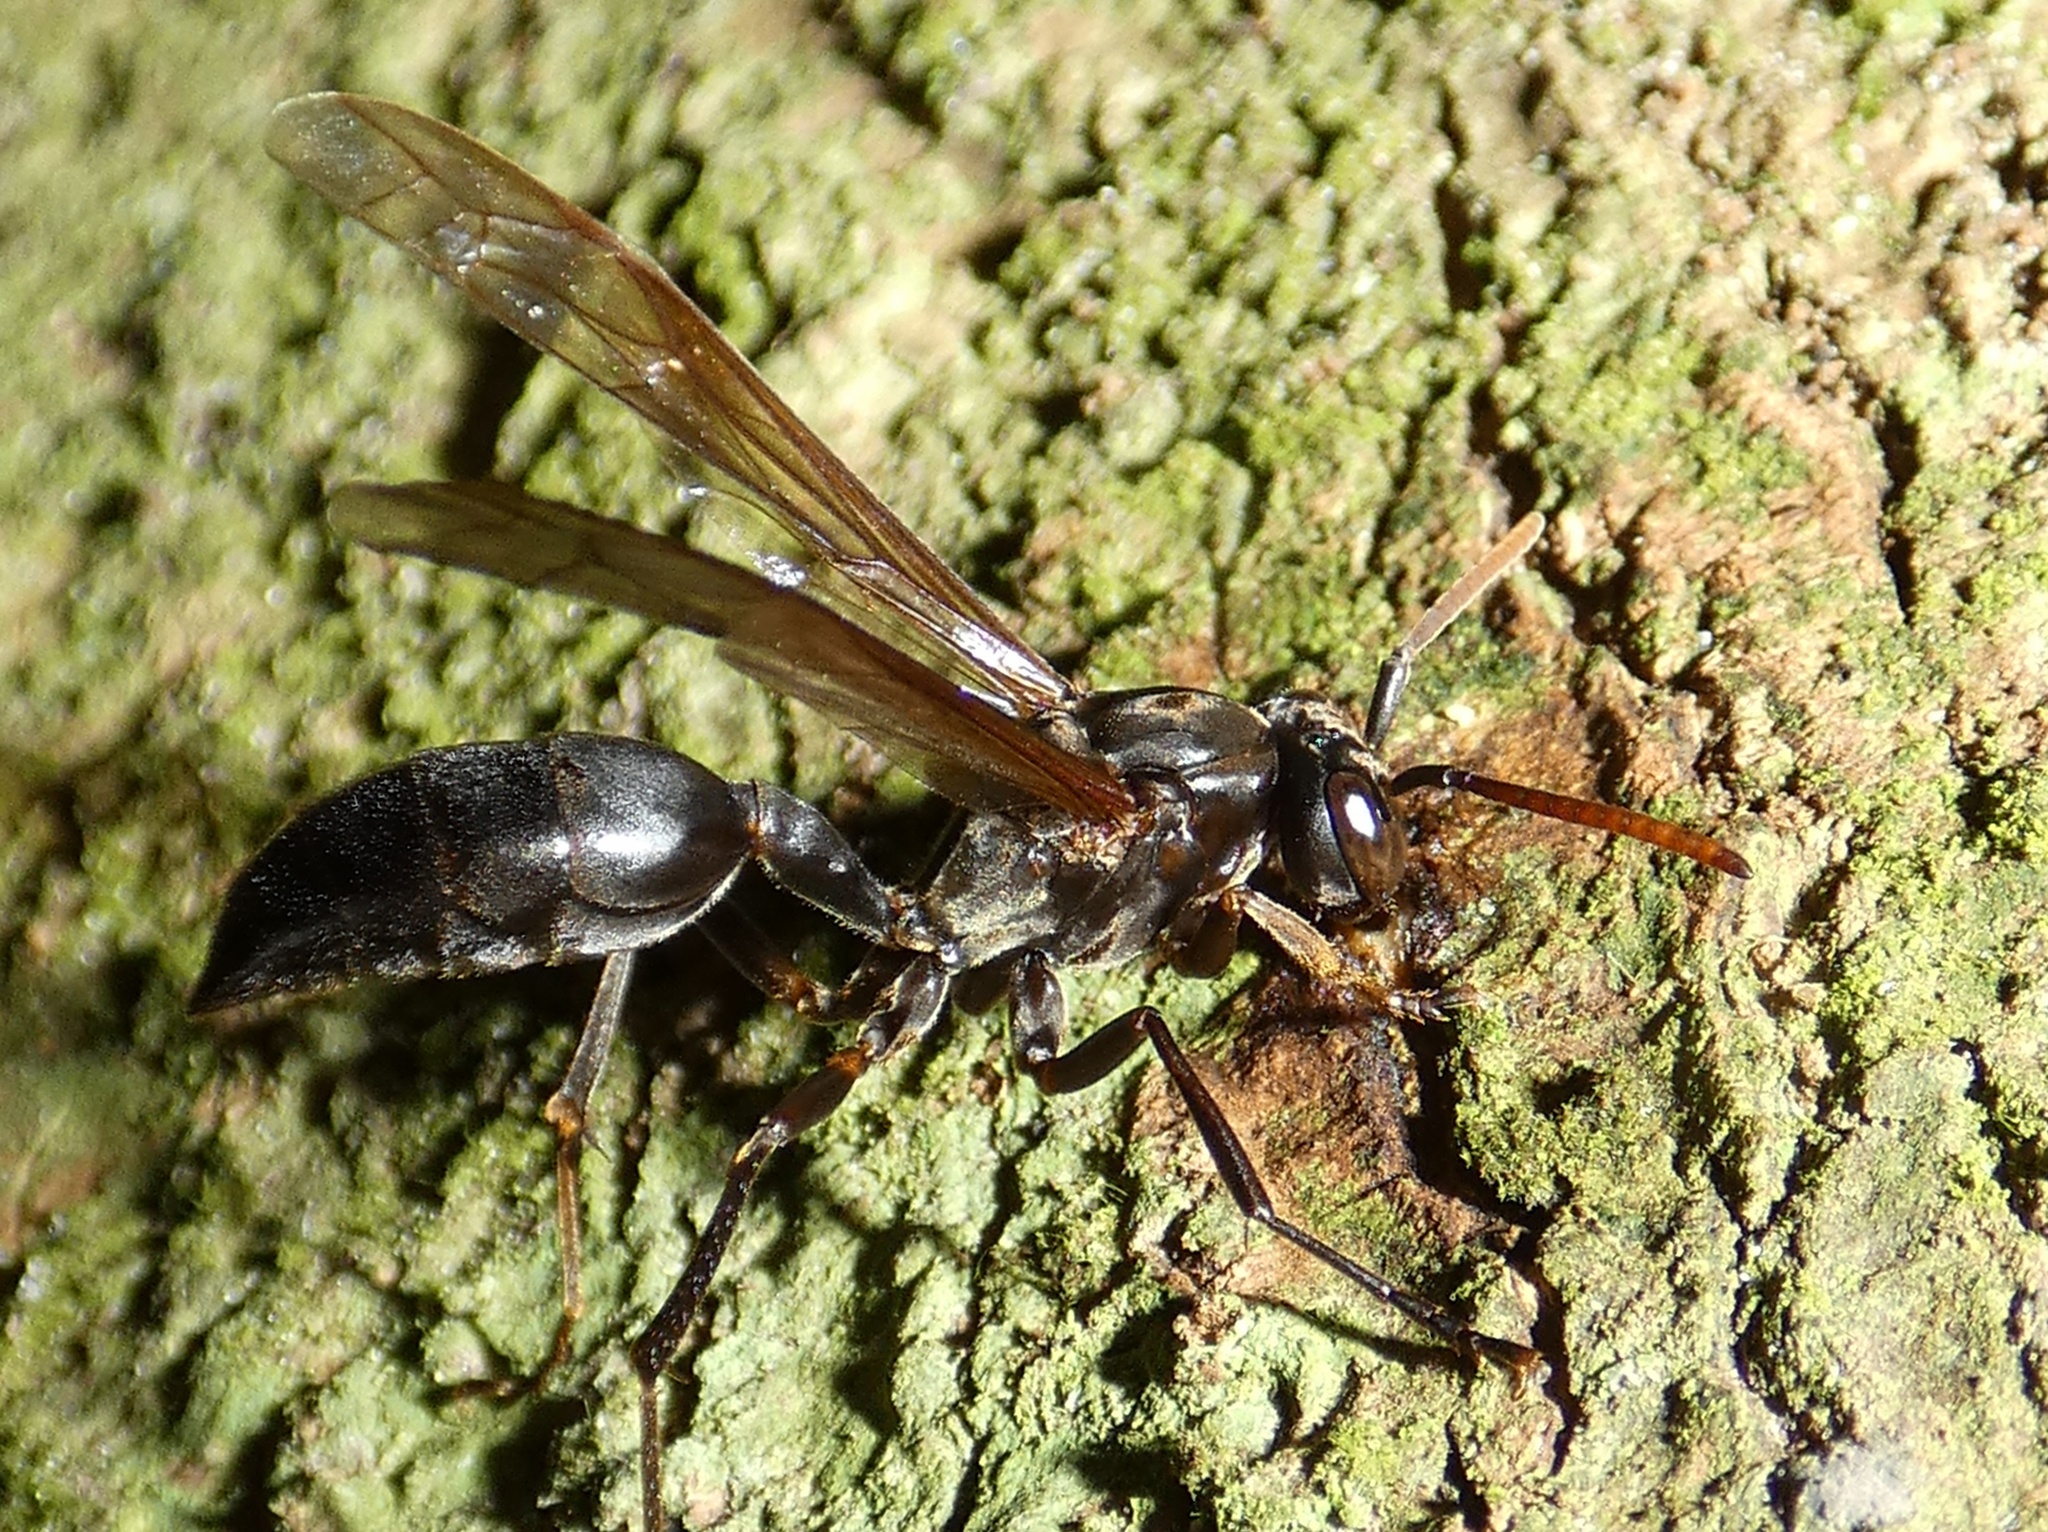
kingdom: Animalia
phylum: Arthropoda
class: Insecta
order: Hymenoptera
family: Vespidae
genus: Agelaia
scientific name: Agelaia panamensis
